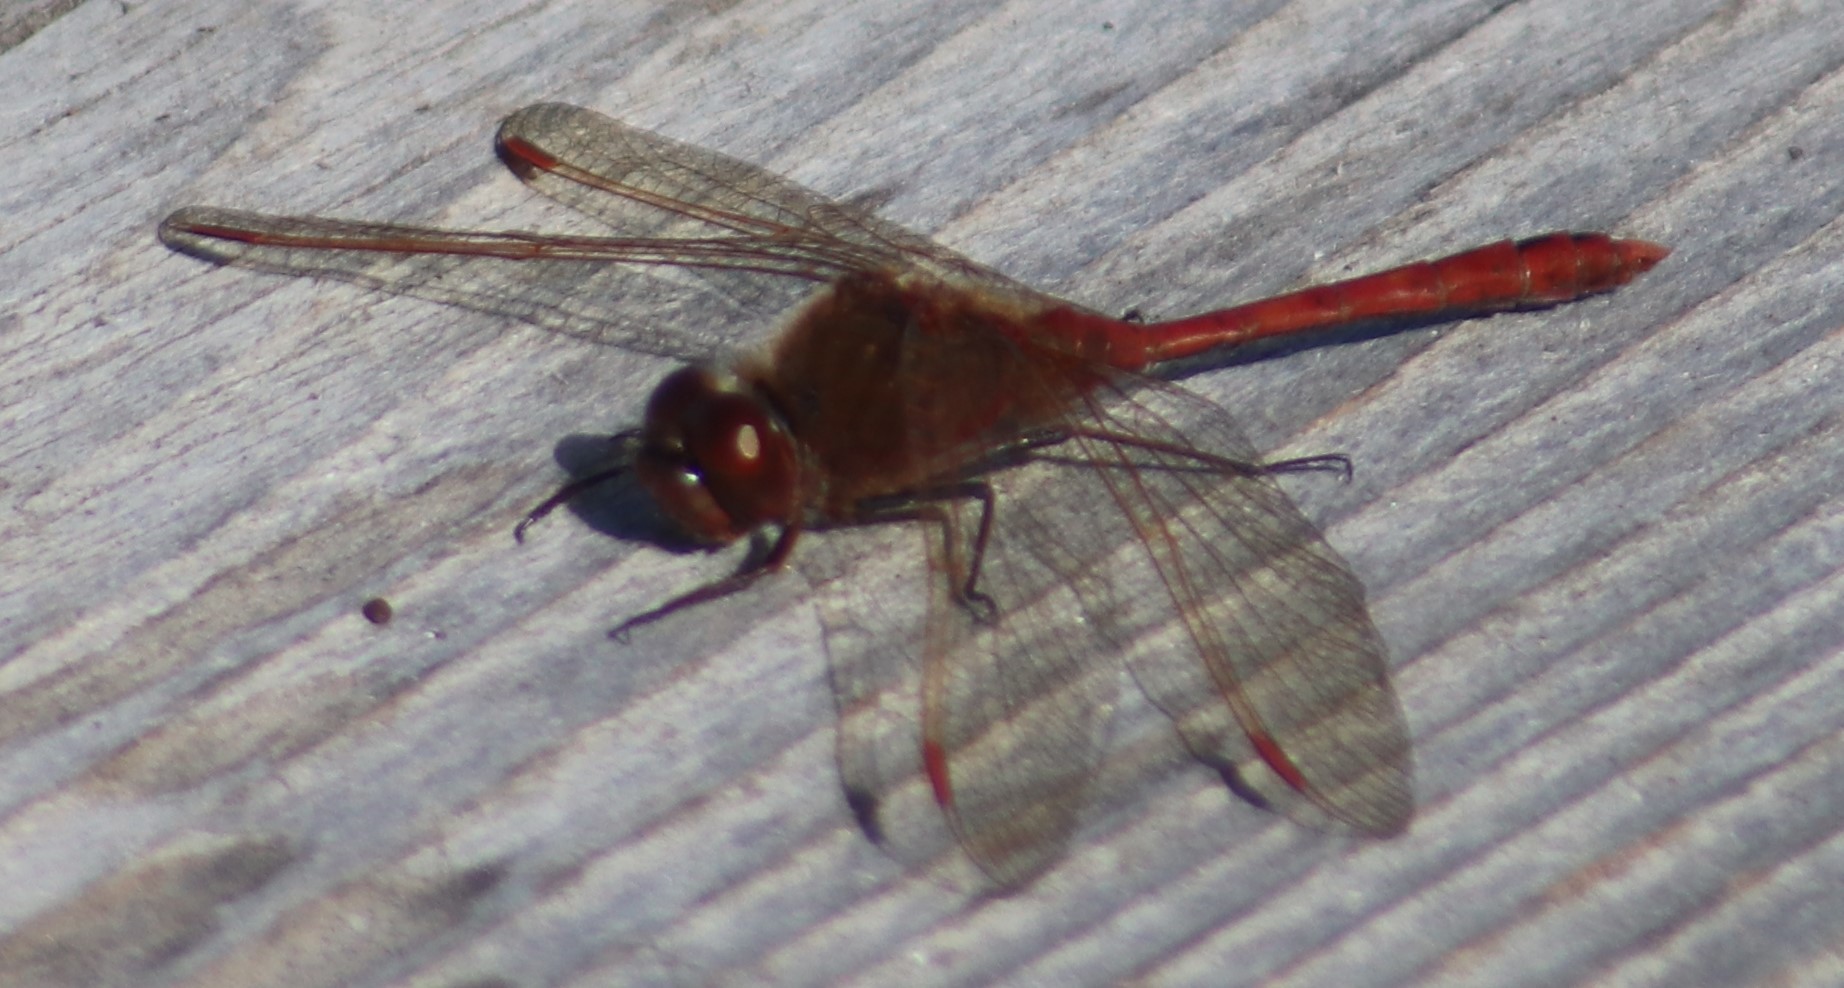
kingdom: Animalia
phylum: Arthropoda
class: Insecta
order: Odonata
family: Libellulidae
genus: Sympetrum
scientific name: Sympetrum costiferum
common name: Saffron-winged meadowhawk
